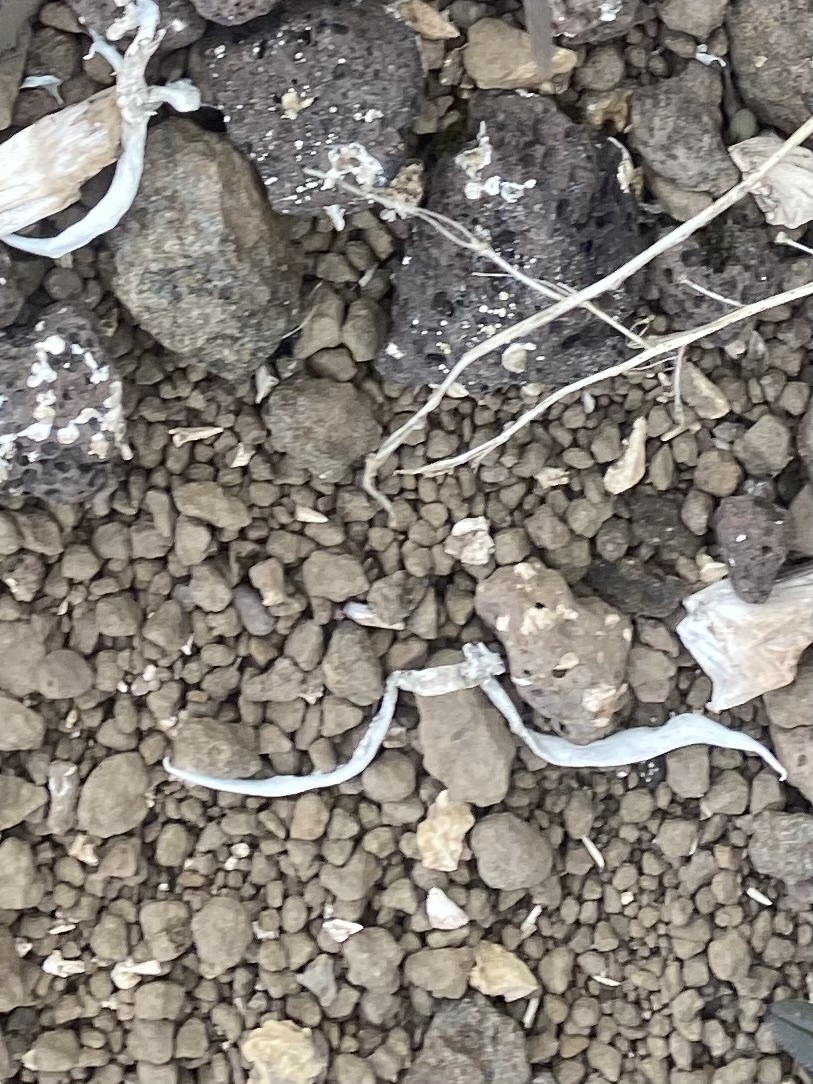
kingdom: Fungi
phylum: Ascomycota
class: Lecanoromycetes
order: Pertusariales
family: Icmadophilaceae
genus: Thamnolia
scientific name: Thamnolia vermicularis
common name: Whiteworm lichen
